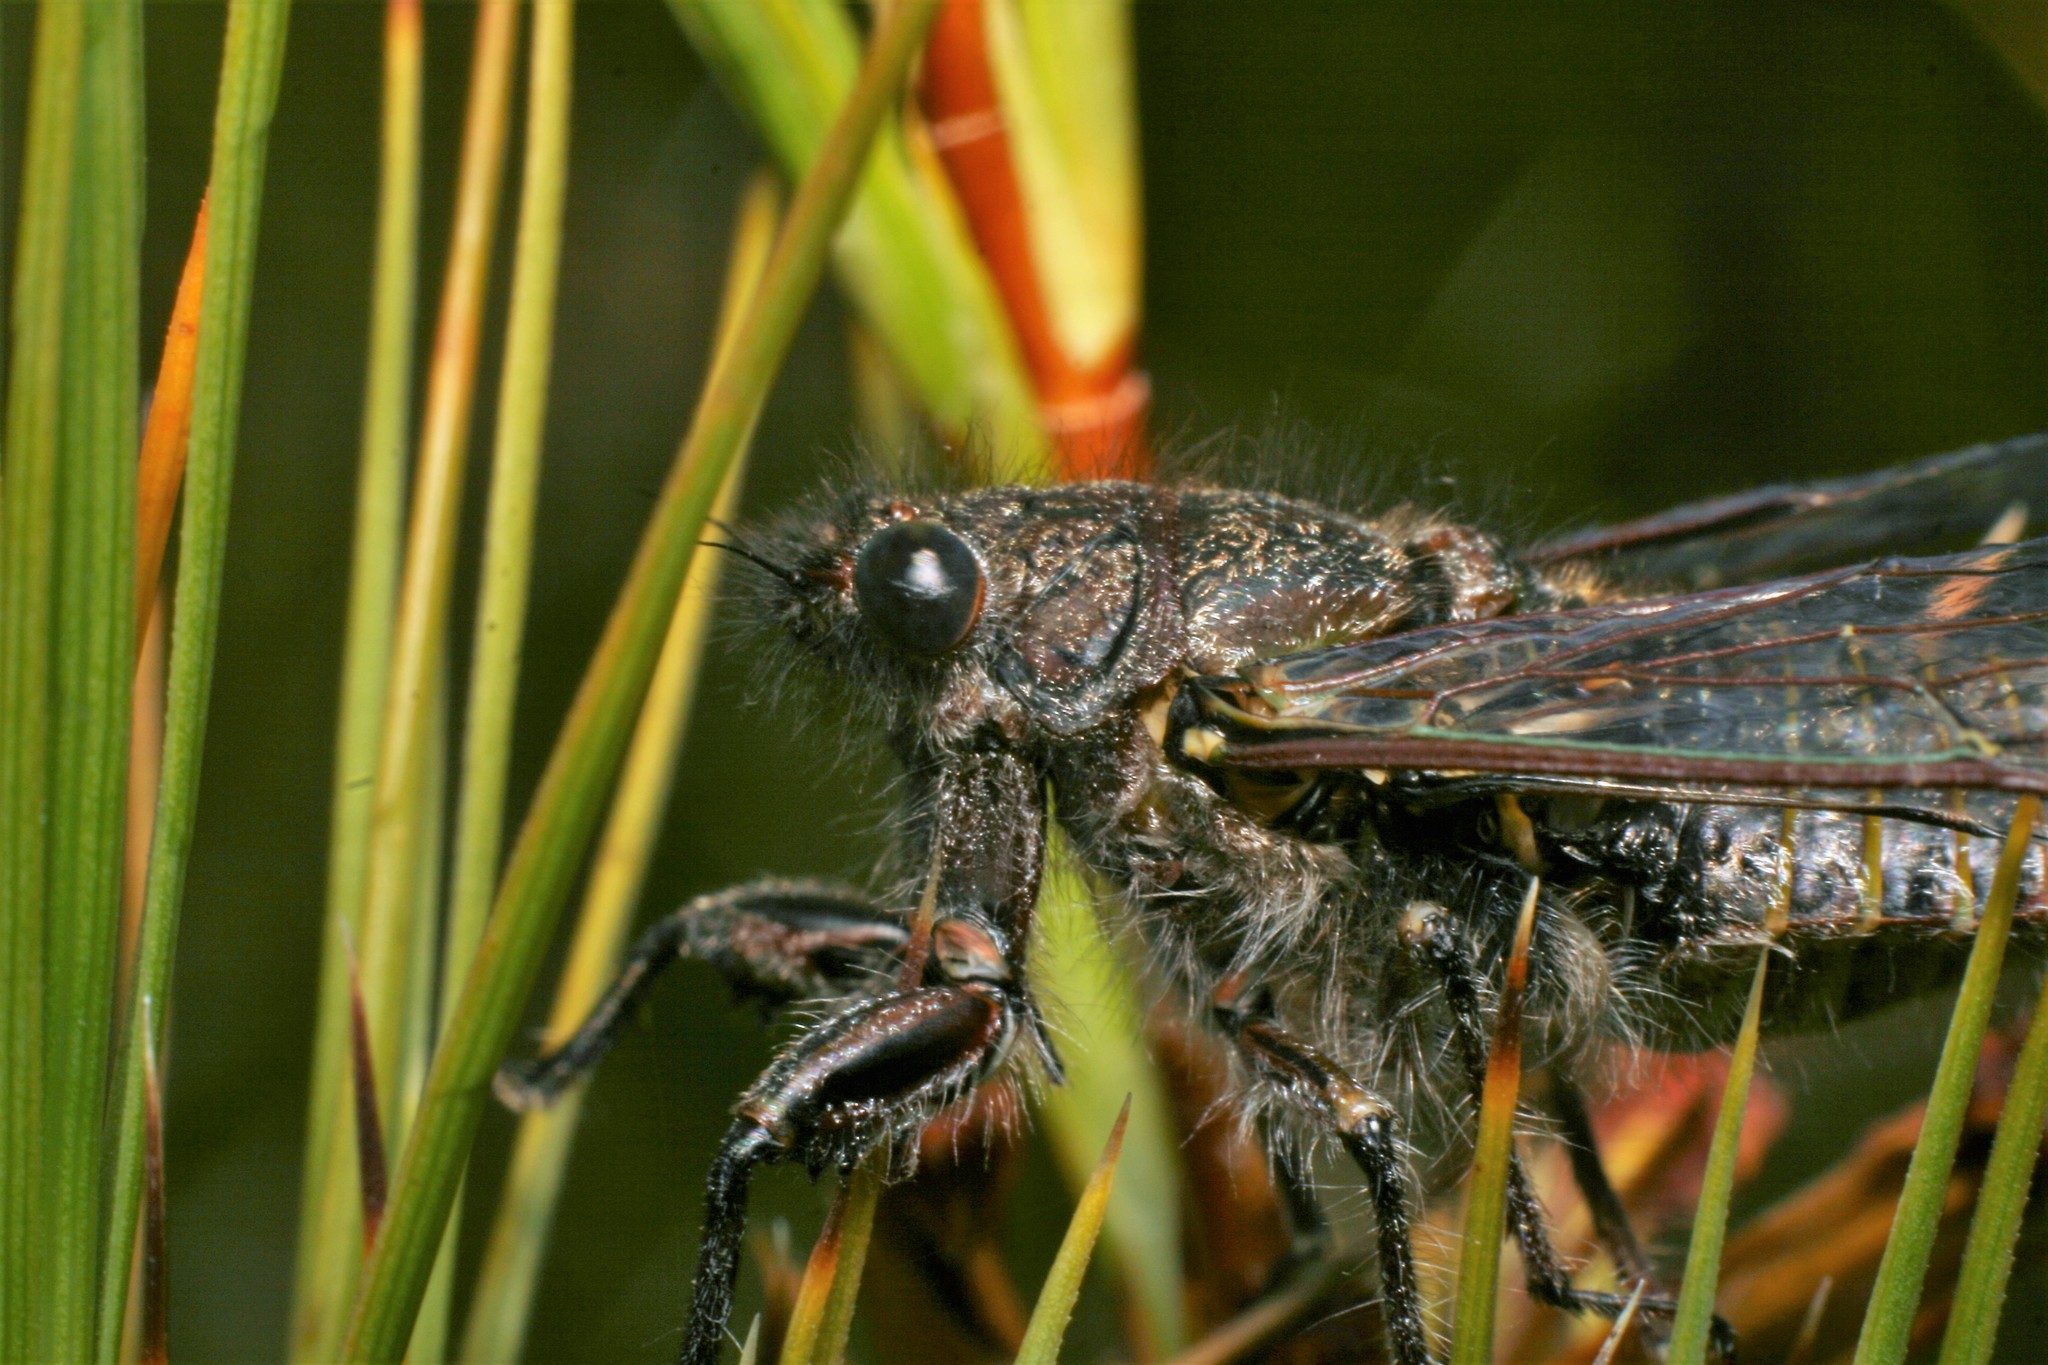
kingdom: Animalia
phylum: Arthropoda
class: Insecta
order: Hemiptera
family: Cicadidae
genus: Maoricicada
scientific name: Maoricicada cassiope
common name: Screaming cicada
